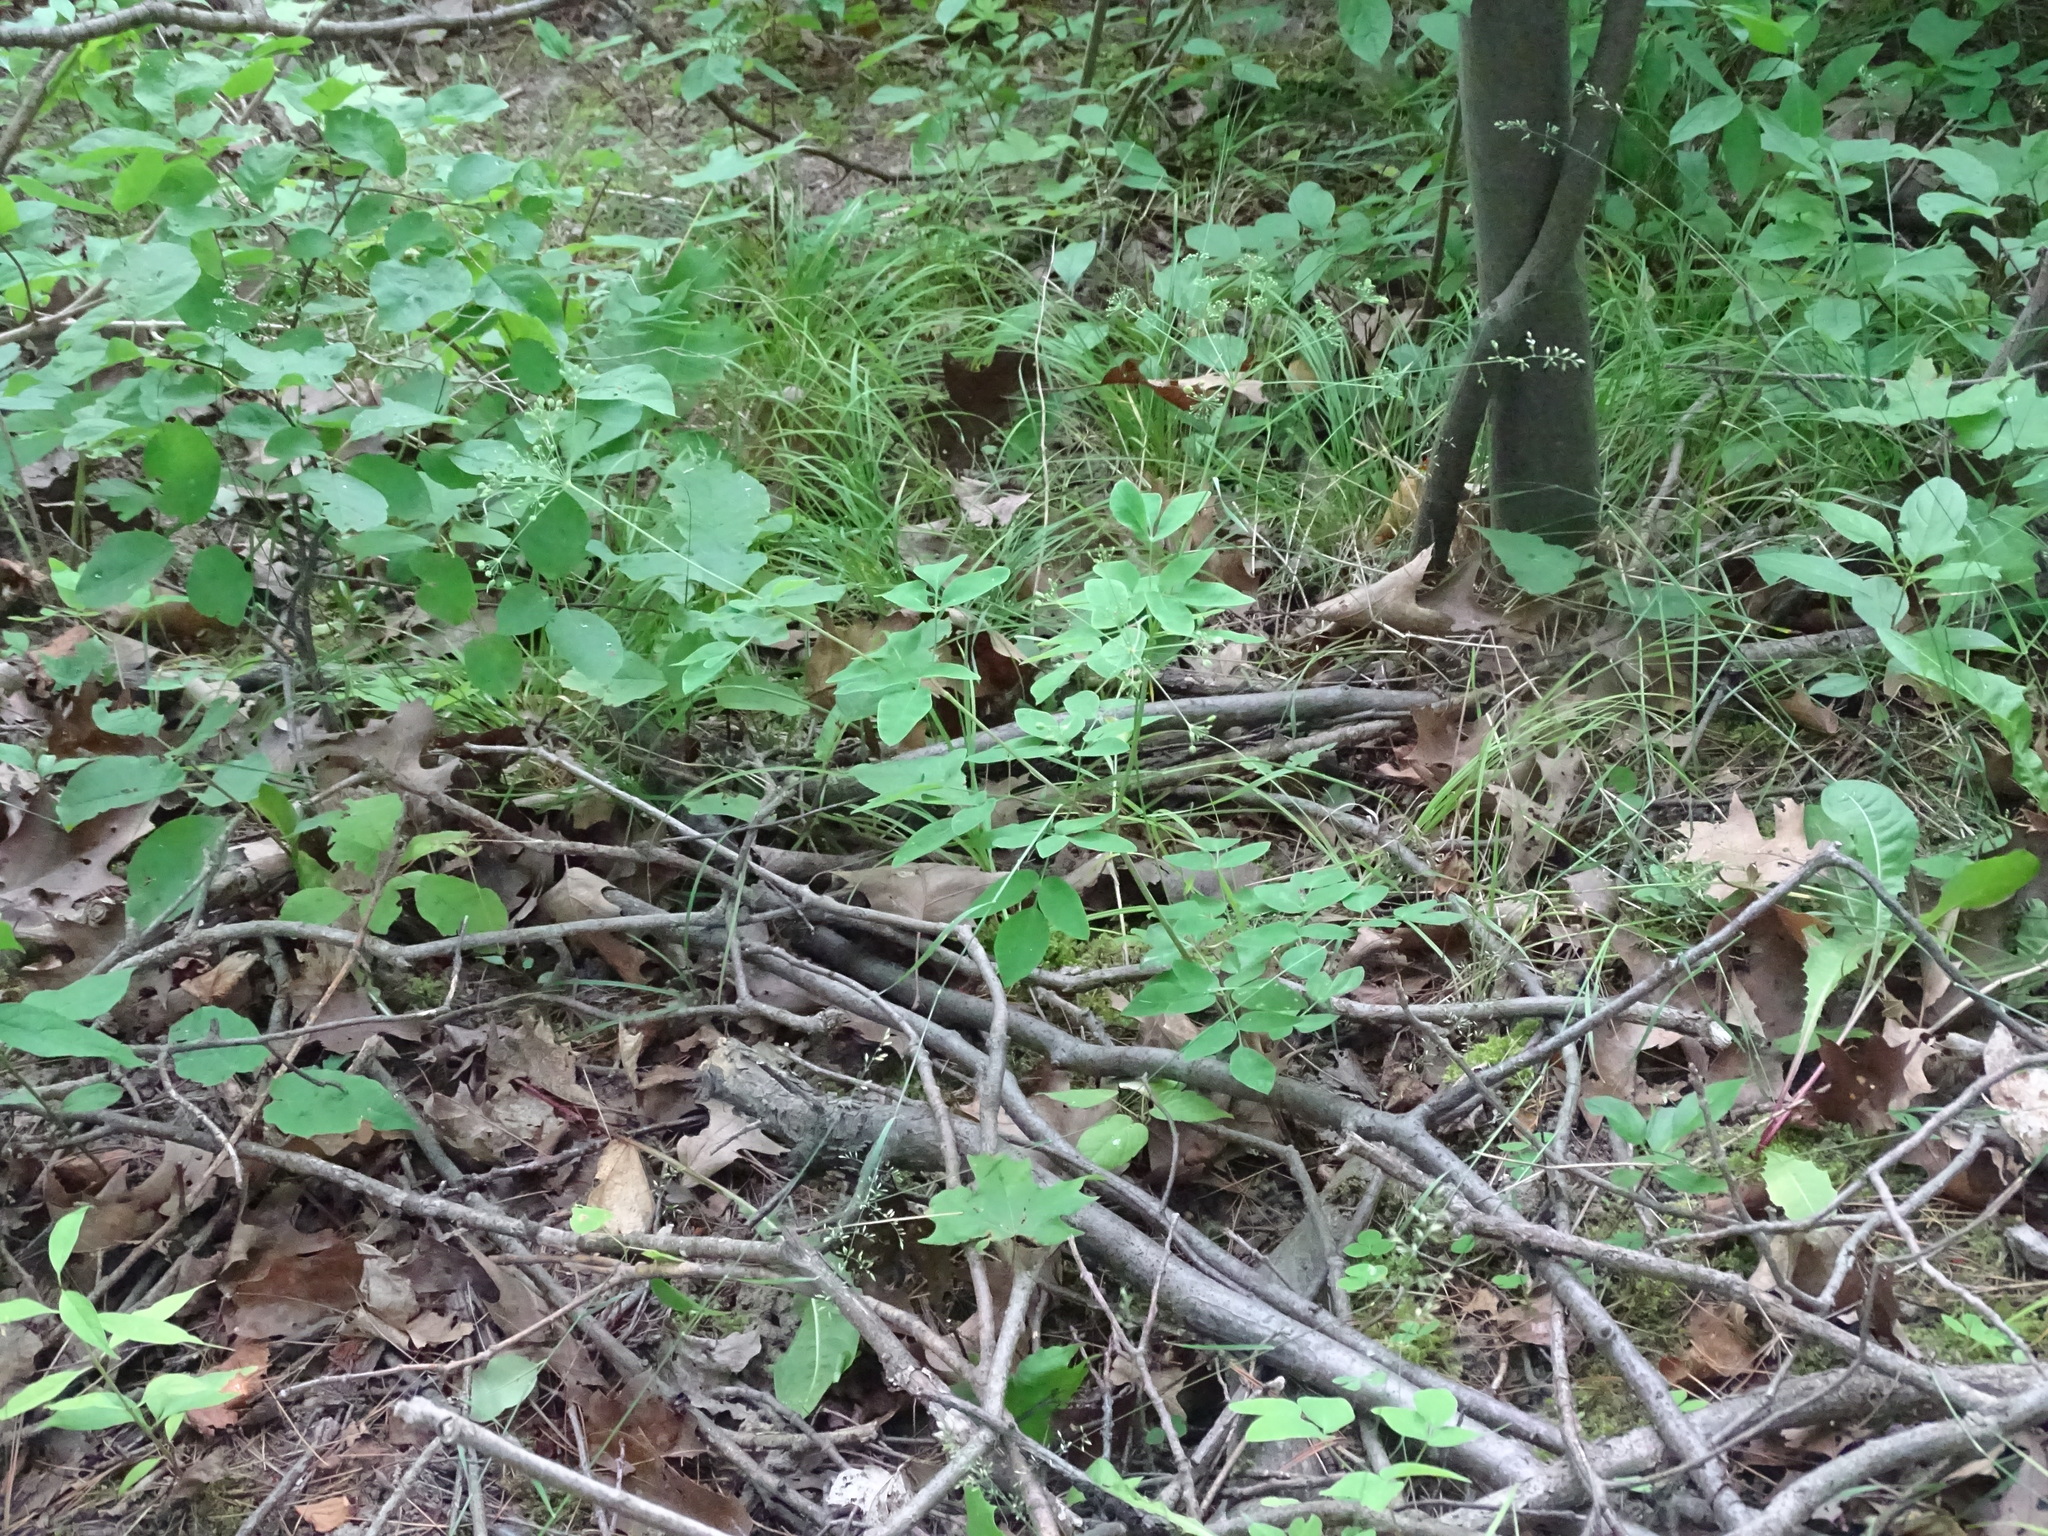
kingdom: Plantae
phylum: Tracheophyta
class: Magnoliopsida
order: Apiales
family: Apiaceae
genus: Taenidia
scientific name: Taenidia integerrima
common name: Golden alexander
